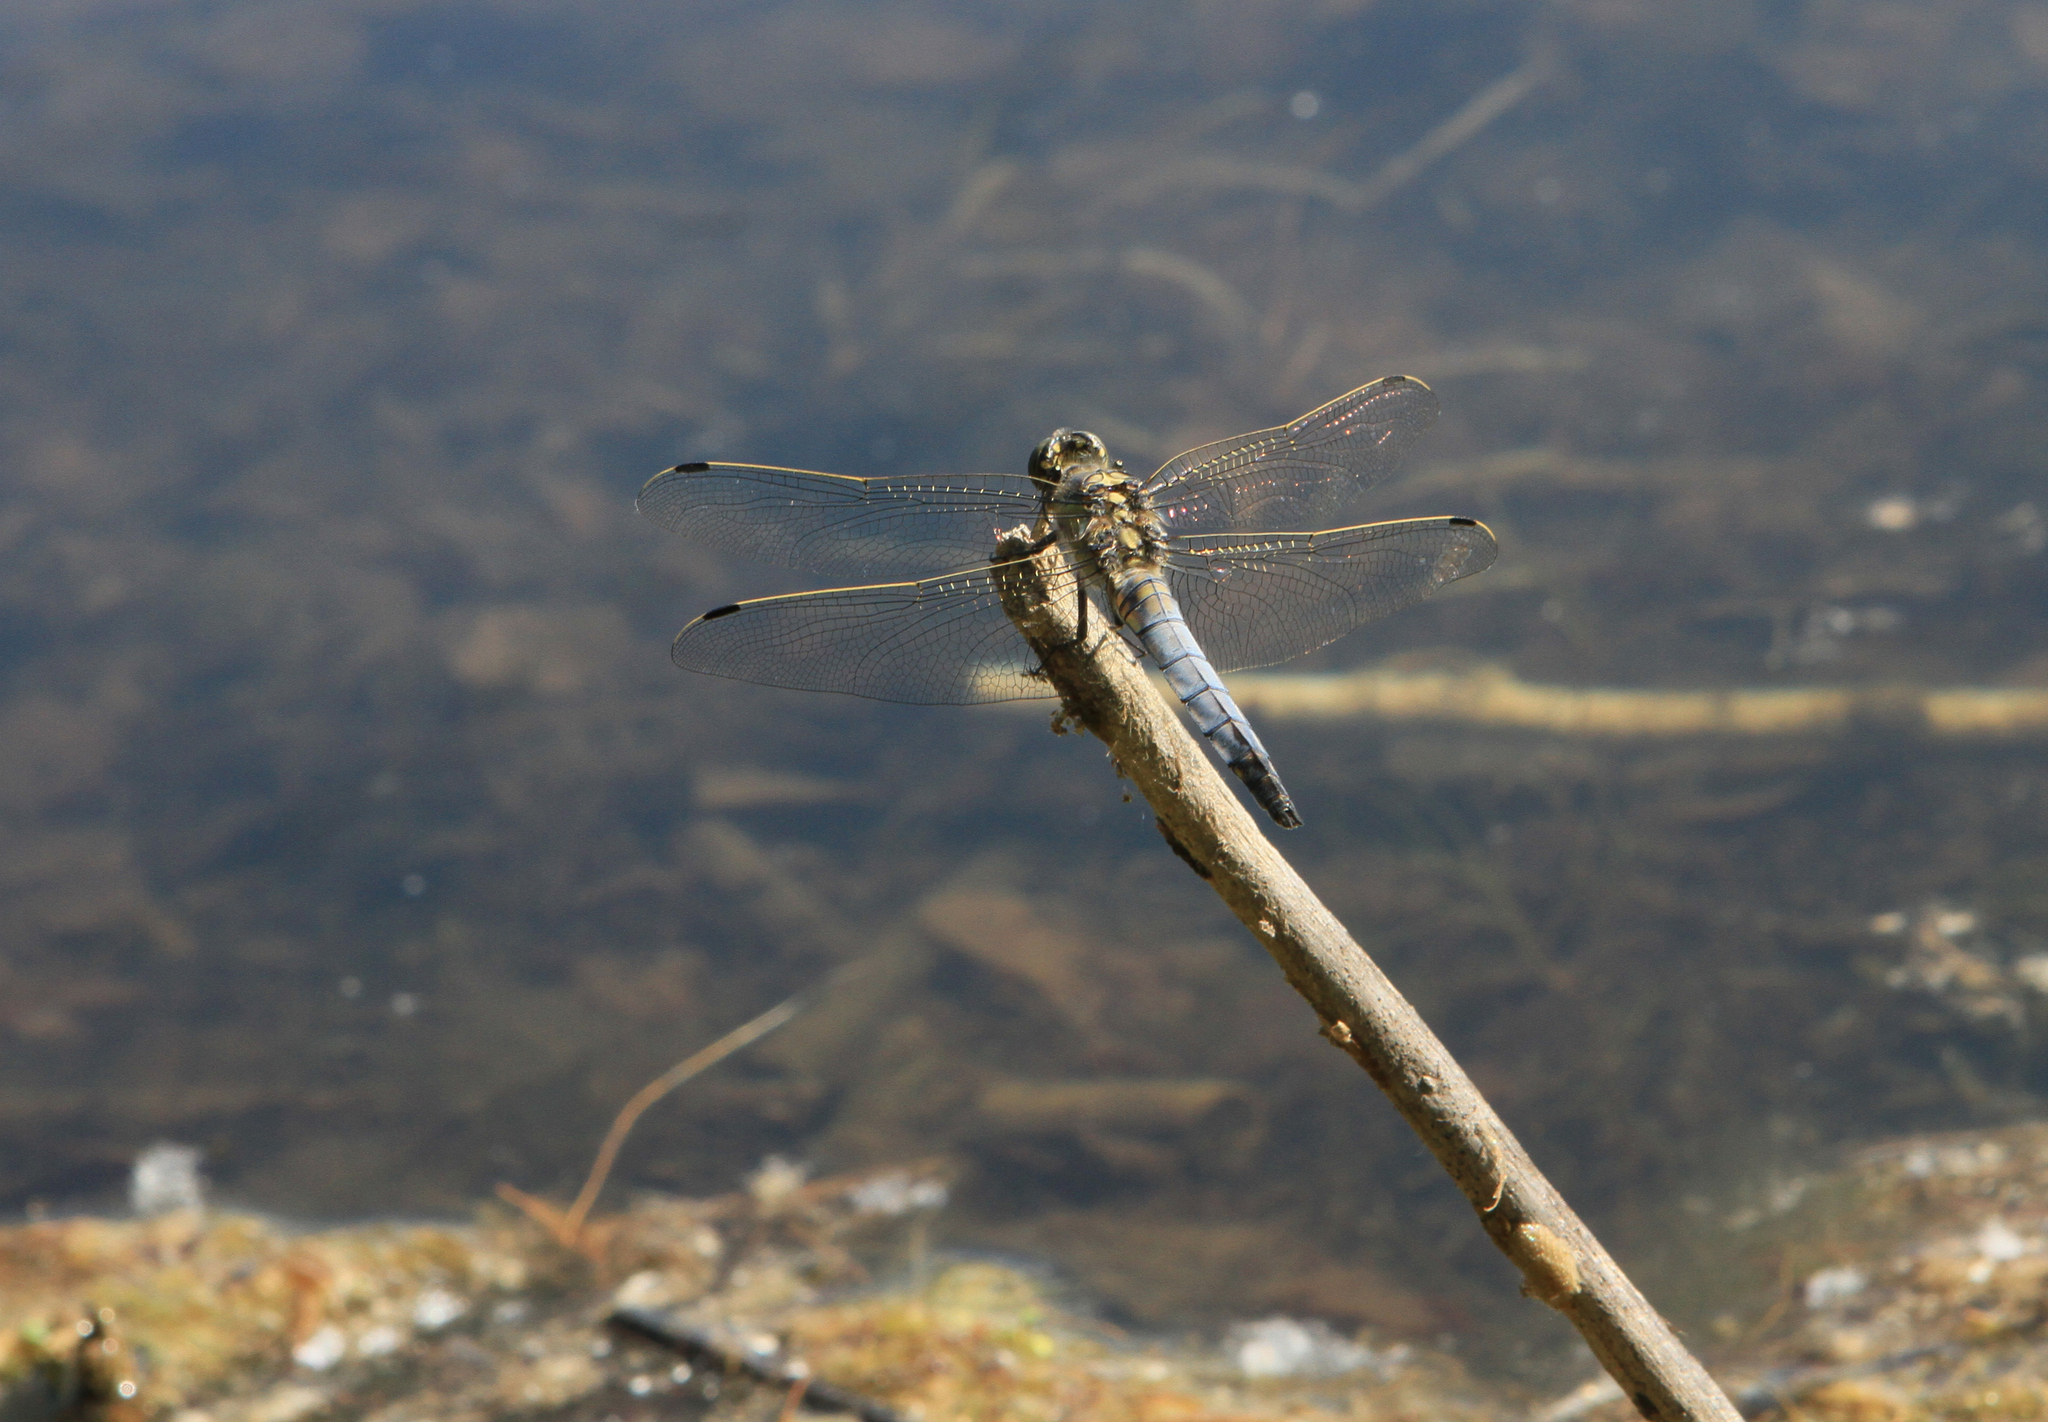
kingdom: Animalia
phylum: Arthropoda
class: Insecta
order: Odonata
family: Libellulidae
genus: Orthetrum
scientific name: Orthetrum cancellatum
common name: Black-tailed skimmer
